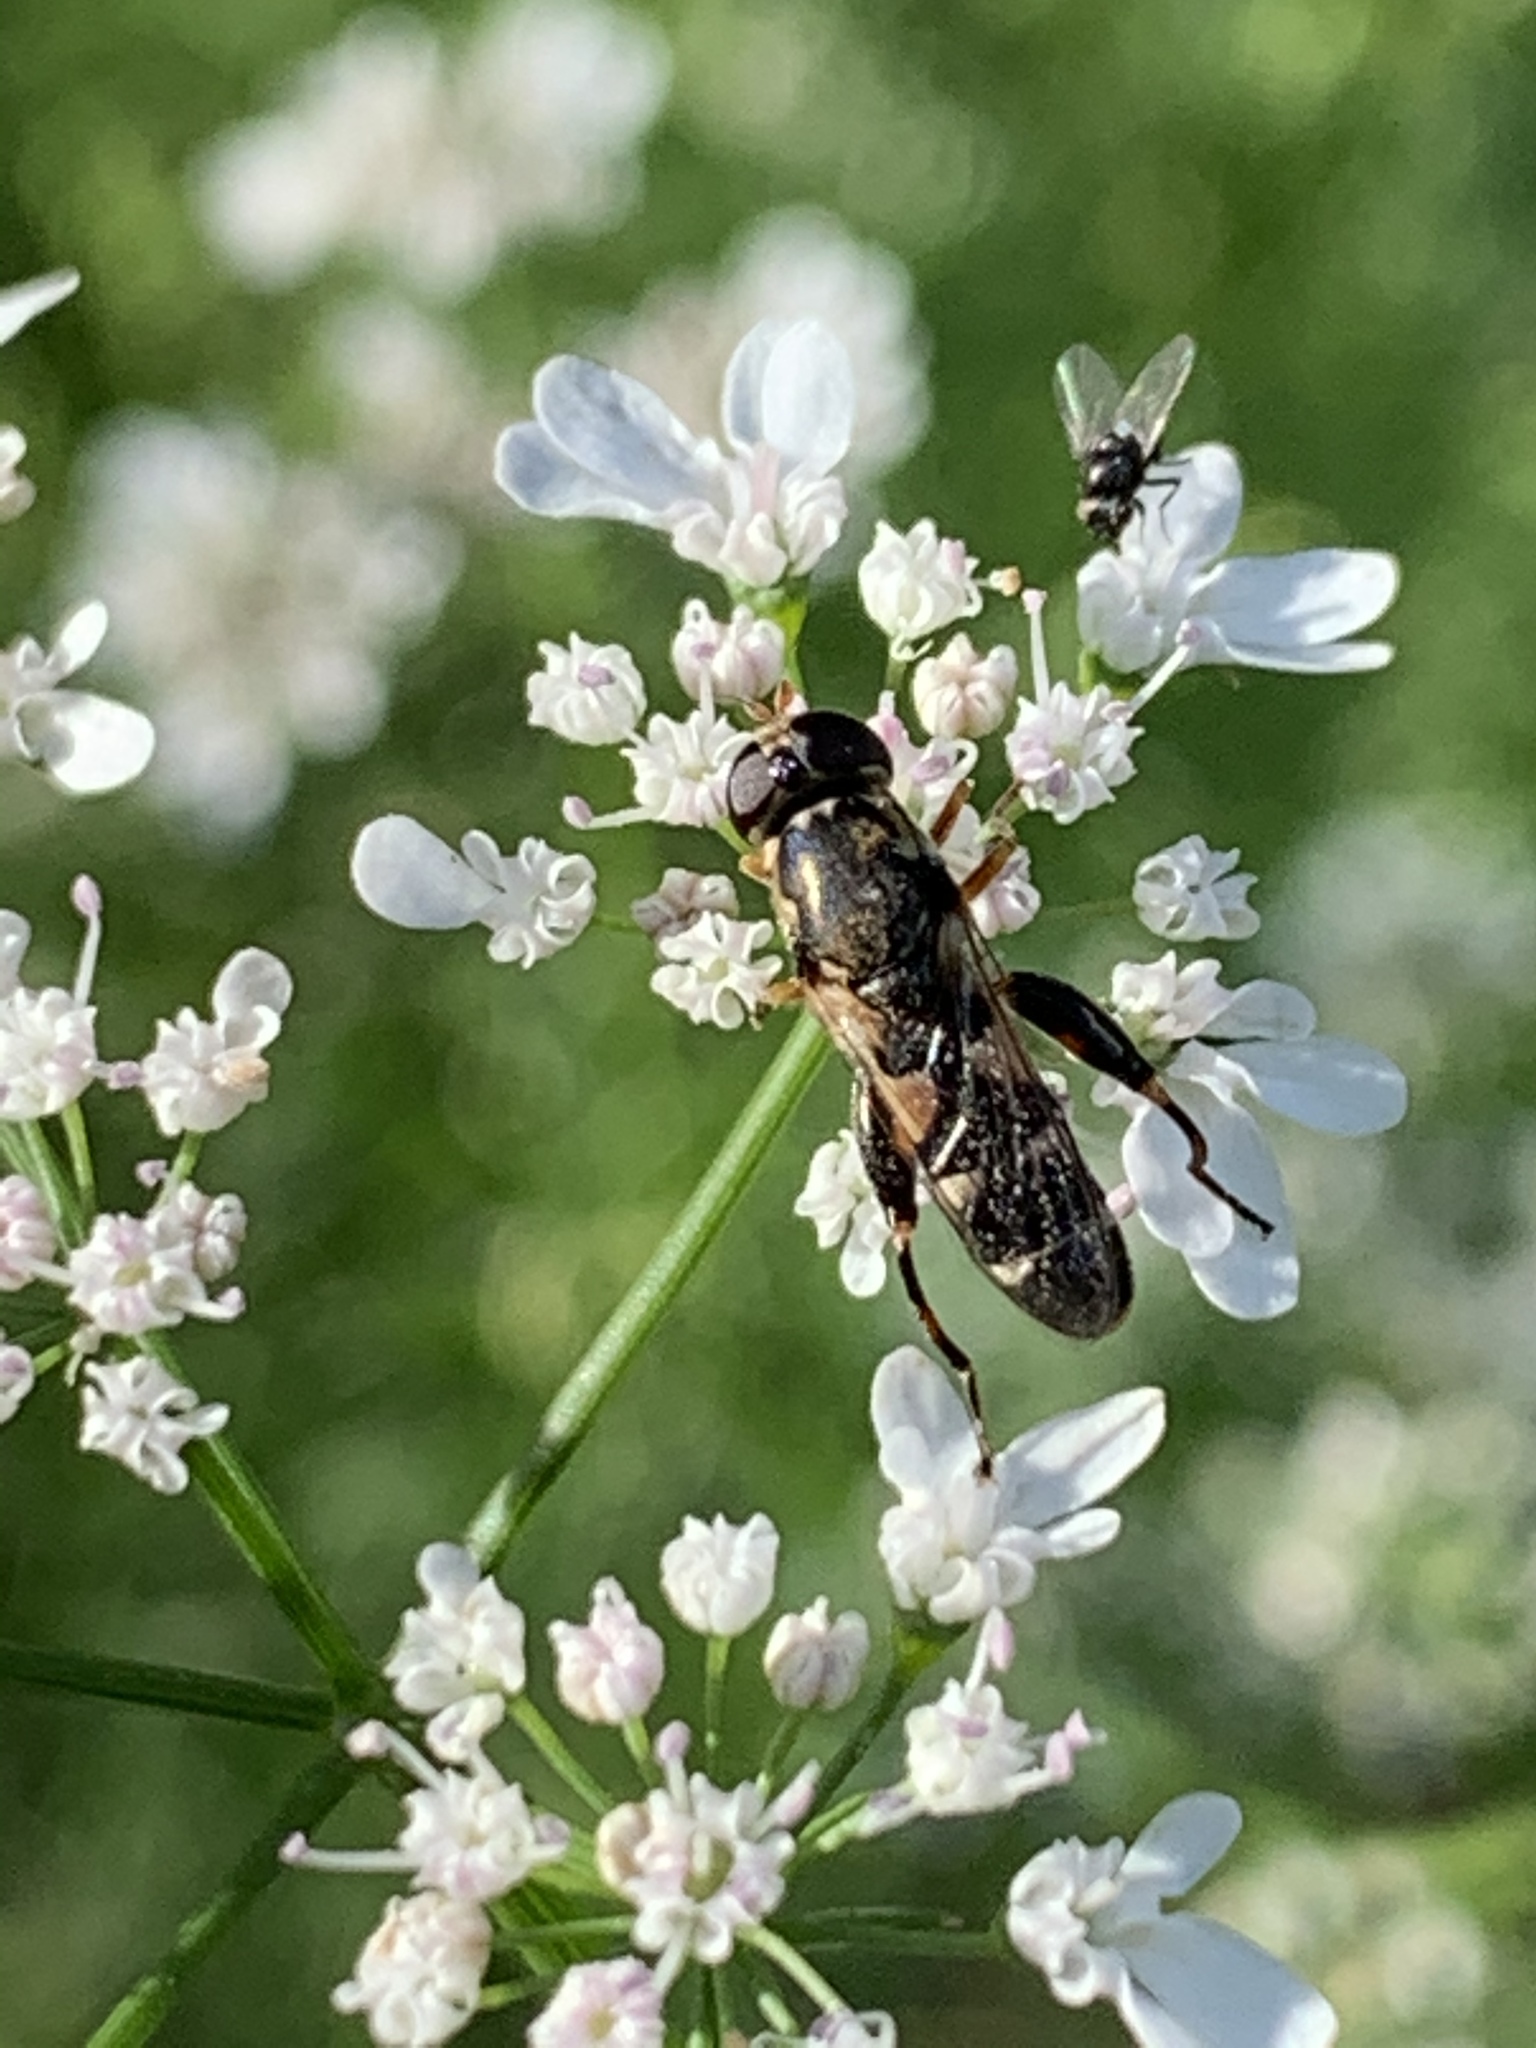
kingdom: Animalia
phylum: Arthropoda
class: Insecta
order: Diptera
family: Syrphidae
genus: Syritta
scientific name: Syritta pipiens
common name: Hover fly
